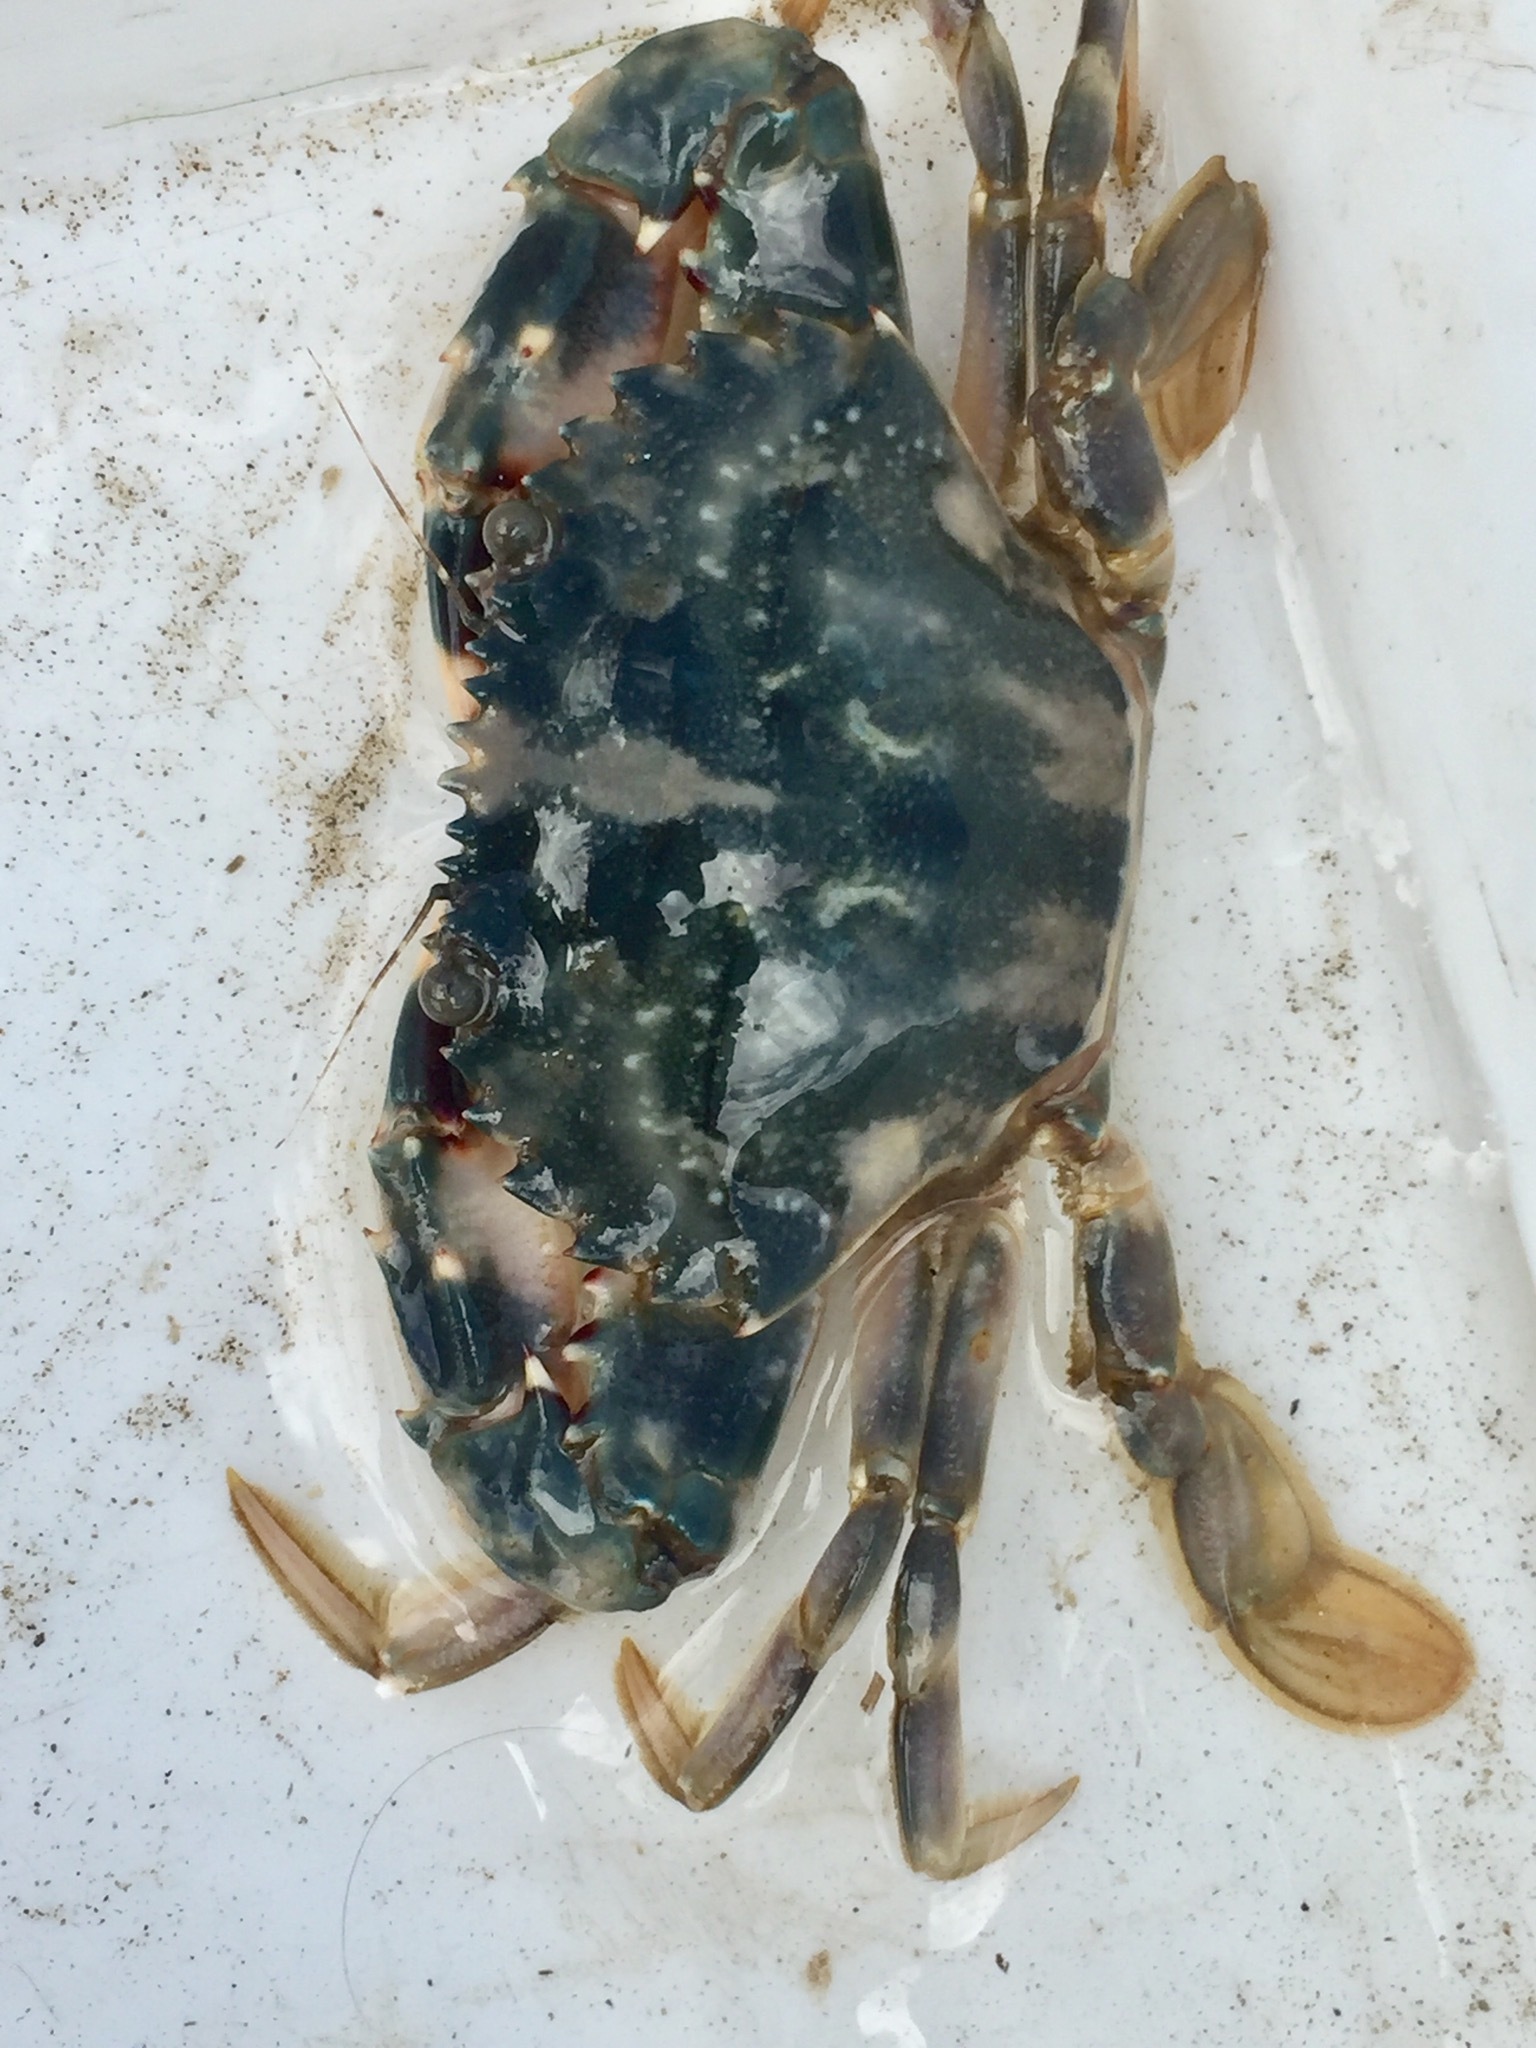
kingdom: Animalia
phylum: Arthropoda
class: Malacostraca
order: Decapoda
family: Portunidae
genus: Charybdis
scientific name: Charybdis japonica
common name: Asian paddle crab
